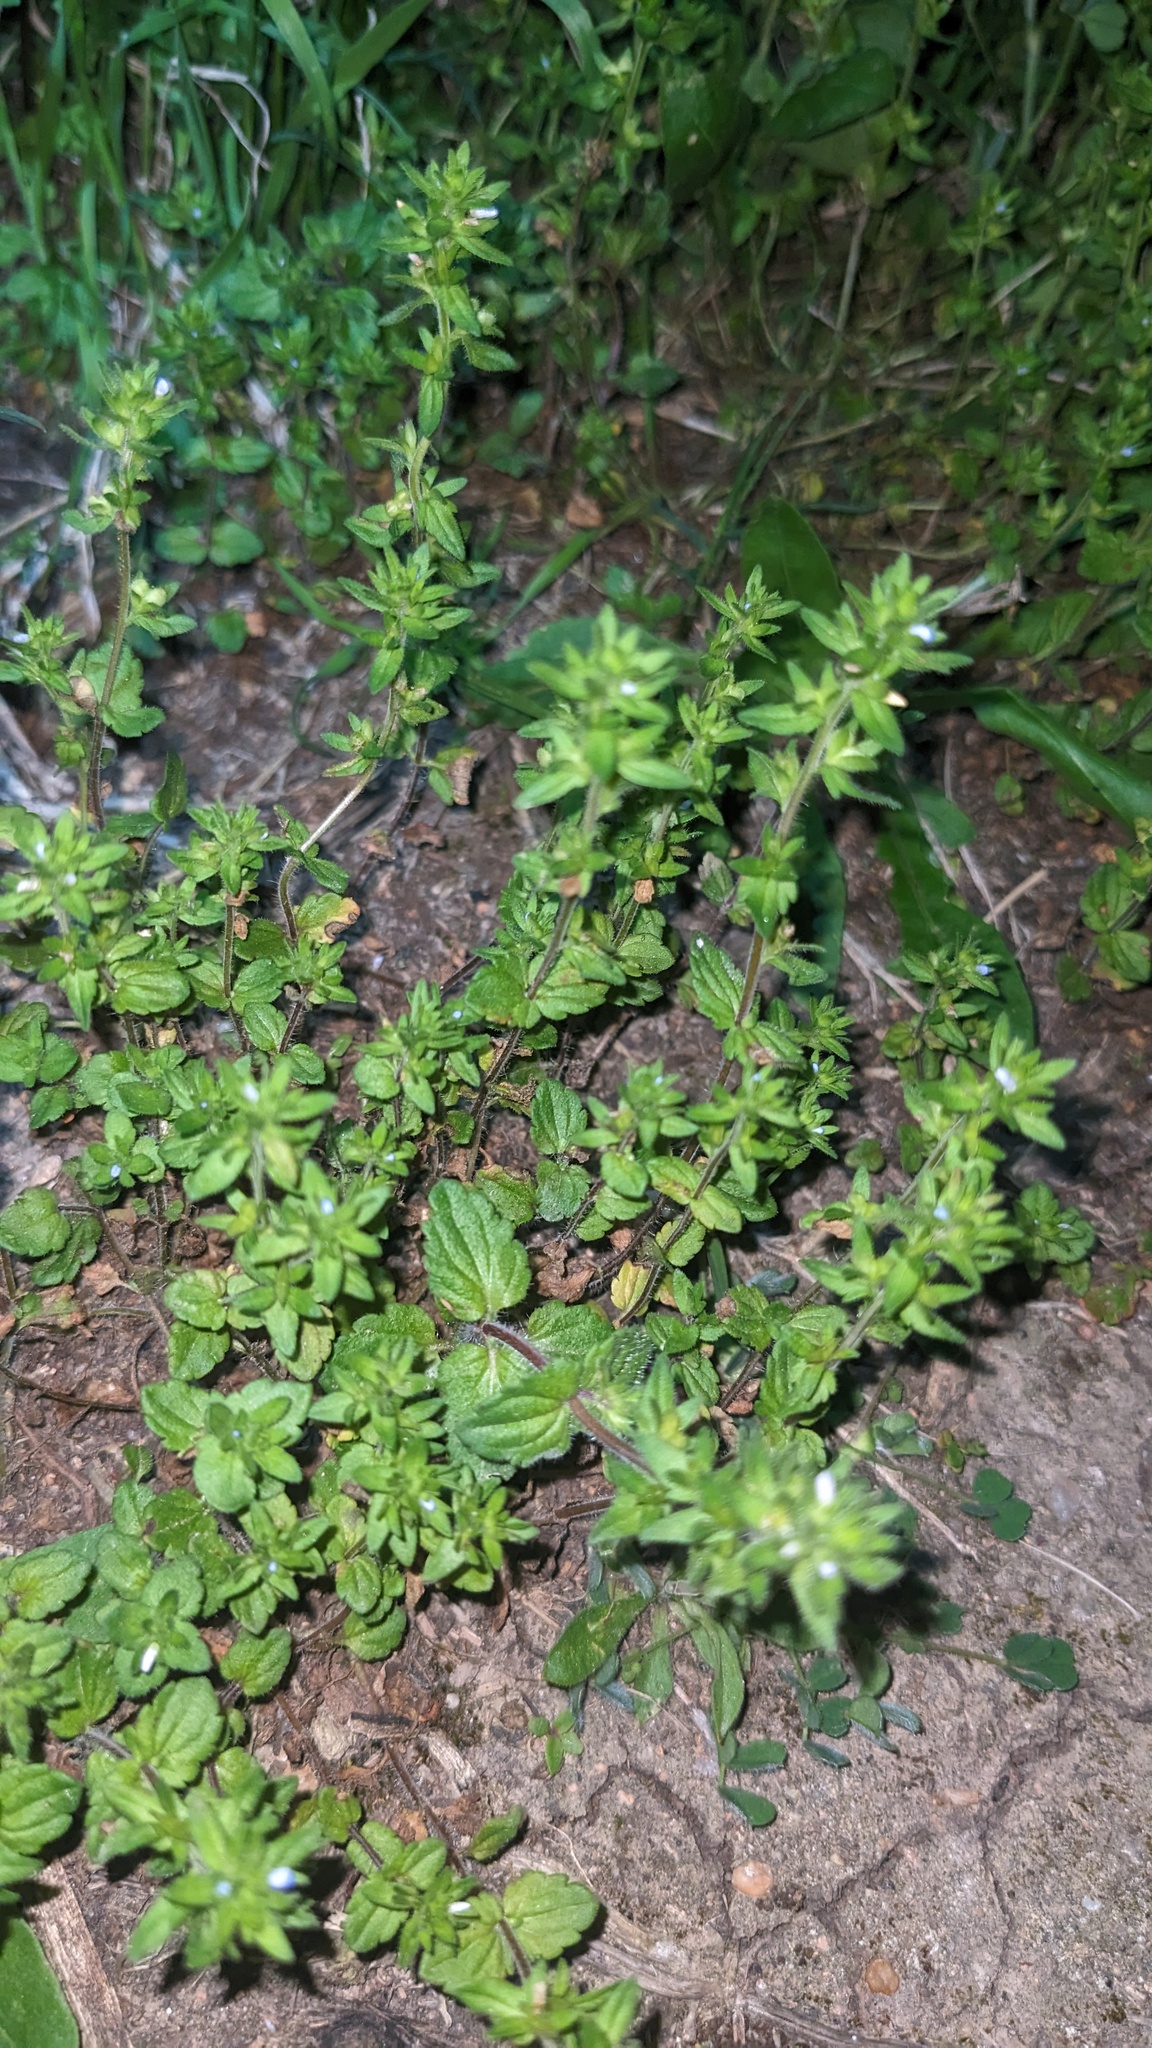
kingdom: Plantae
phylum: Tracheophyta
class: Magnoliopsida
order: Lamiales
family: Plantaginaceae
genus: Veronica
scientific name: Veronica arvensis
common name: Corn speedwell
